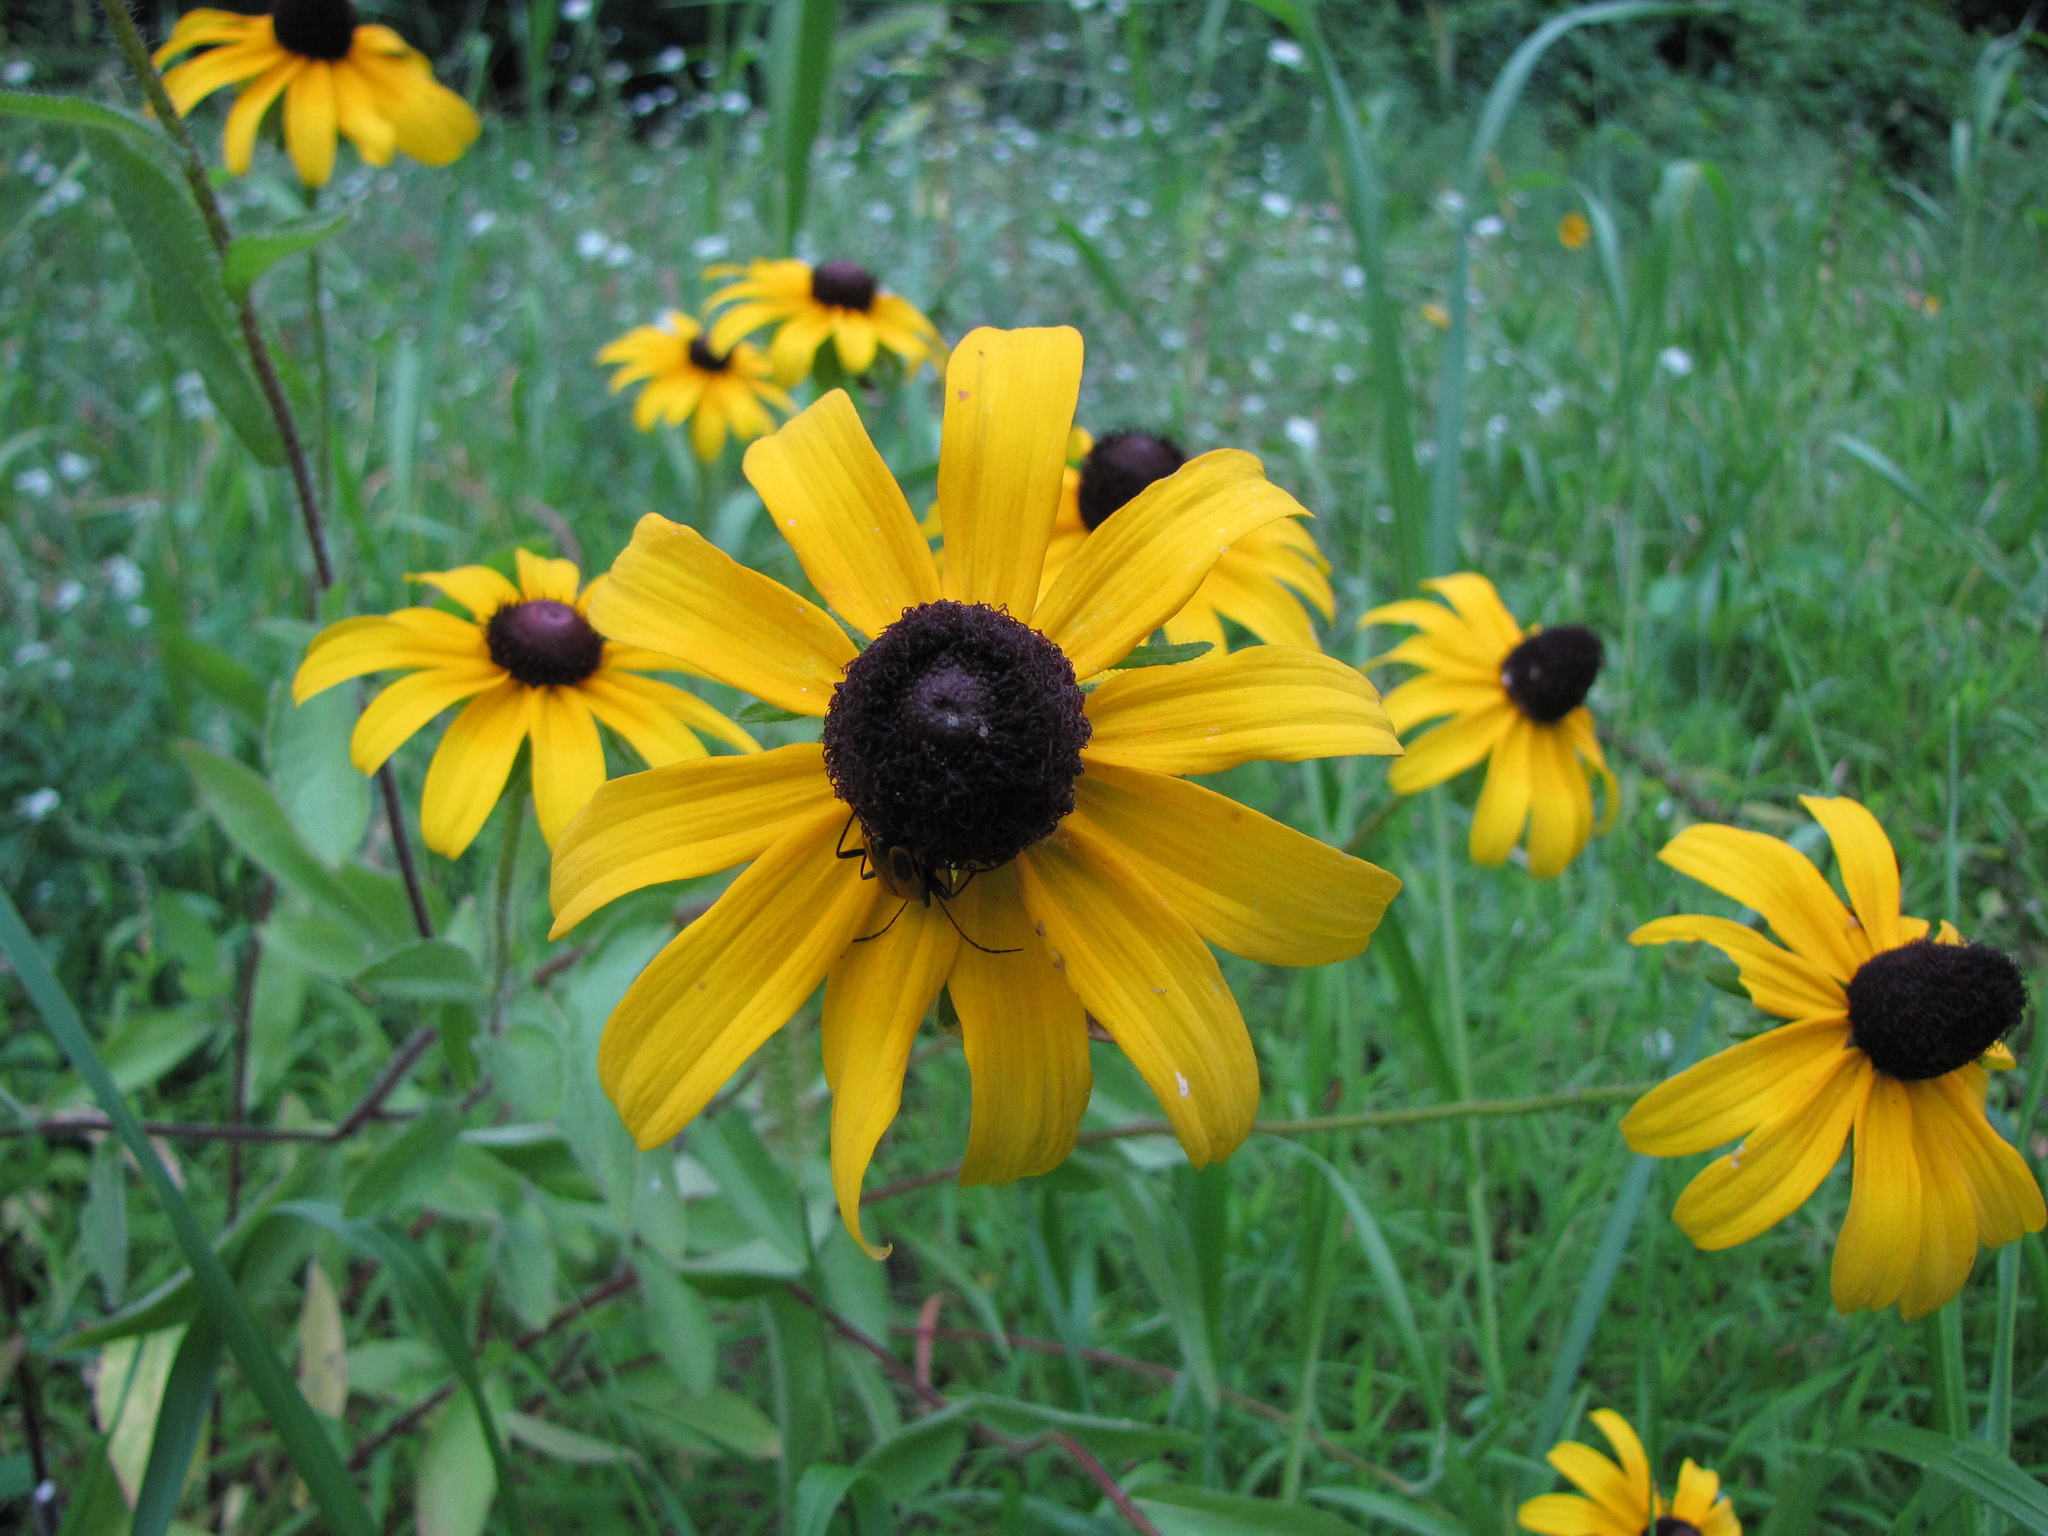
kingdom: Plantae
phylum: Tracheophyta
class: Magnoliopsida
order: Asterales
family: Asteraceae
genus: Rudbeckia
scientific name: Rudbeckia hirta
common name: Black-eyed-susan
